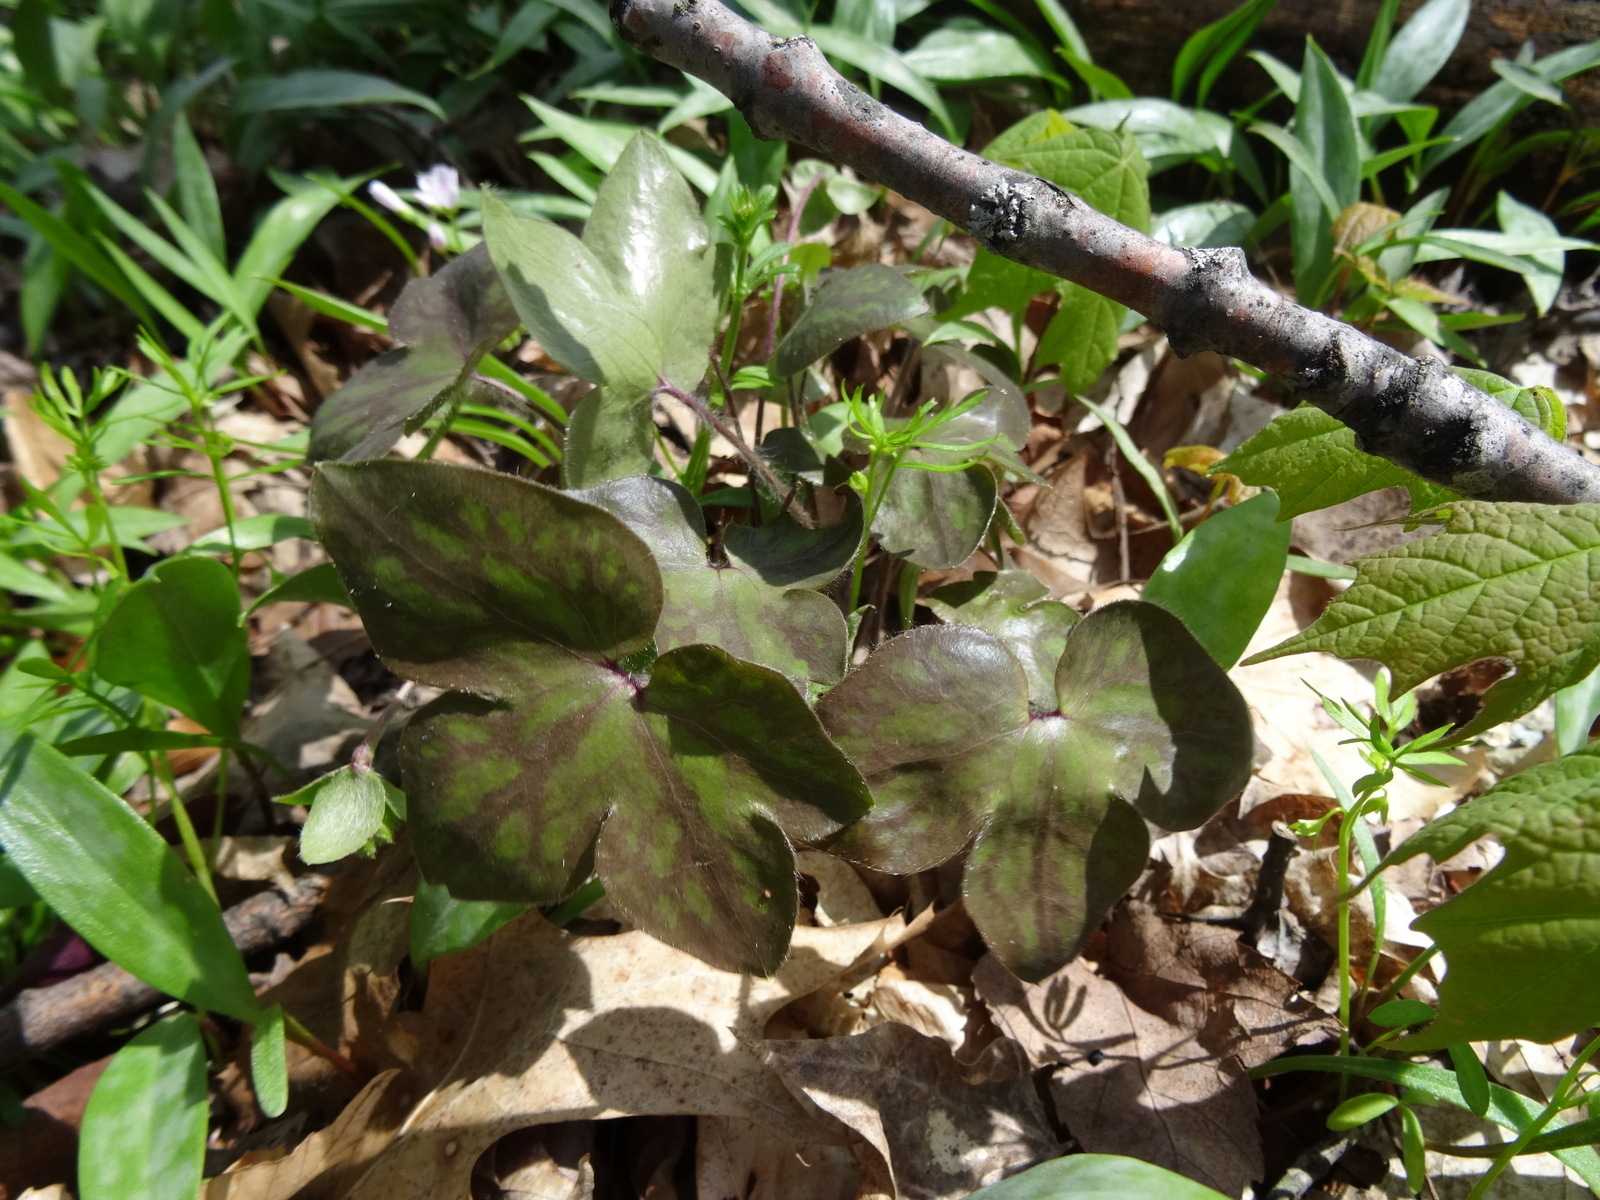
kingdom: Plantae
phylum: Tracheophyta
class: Magnoliopsida
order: Ranunculales
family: Ranunculaceae
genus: Hepatica
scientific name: Hepatica americana
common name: American hepatica
